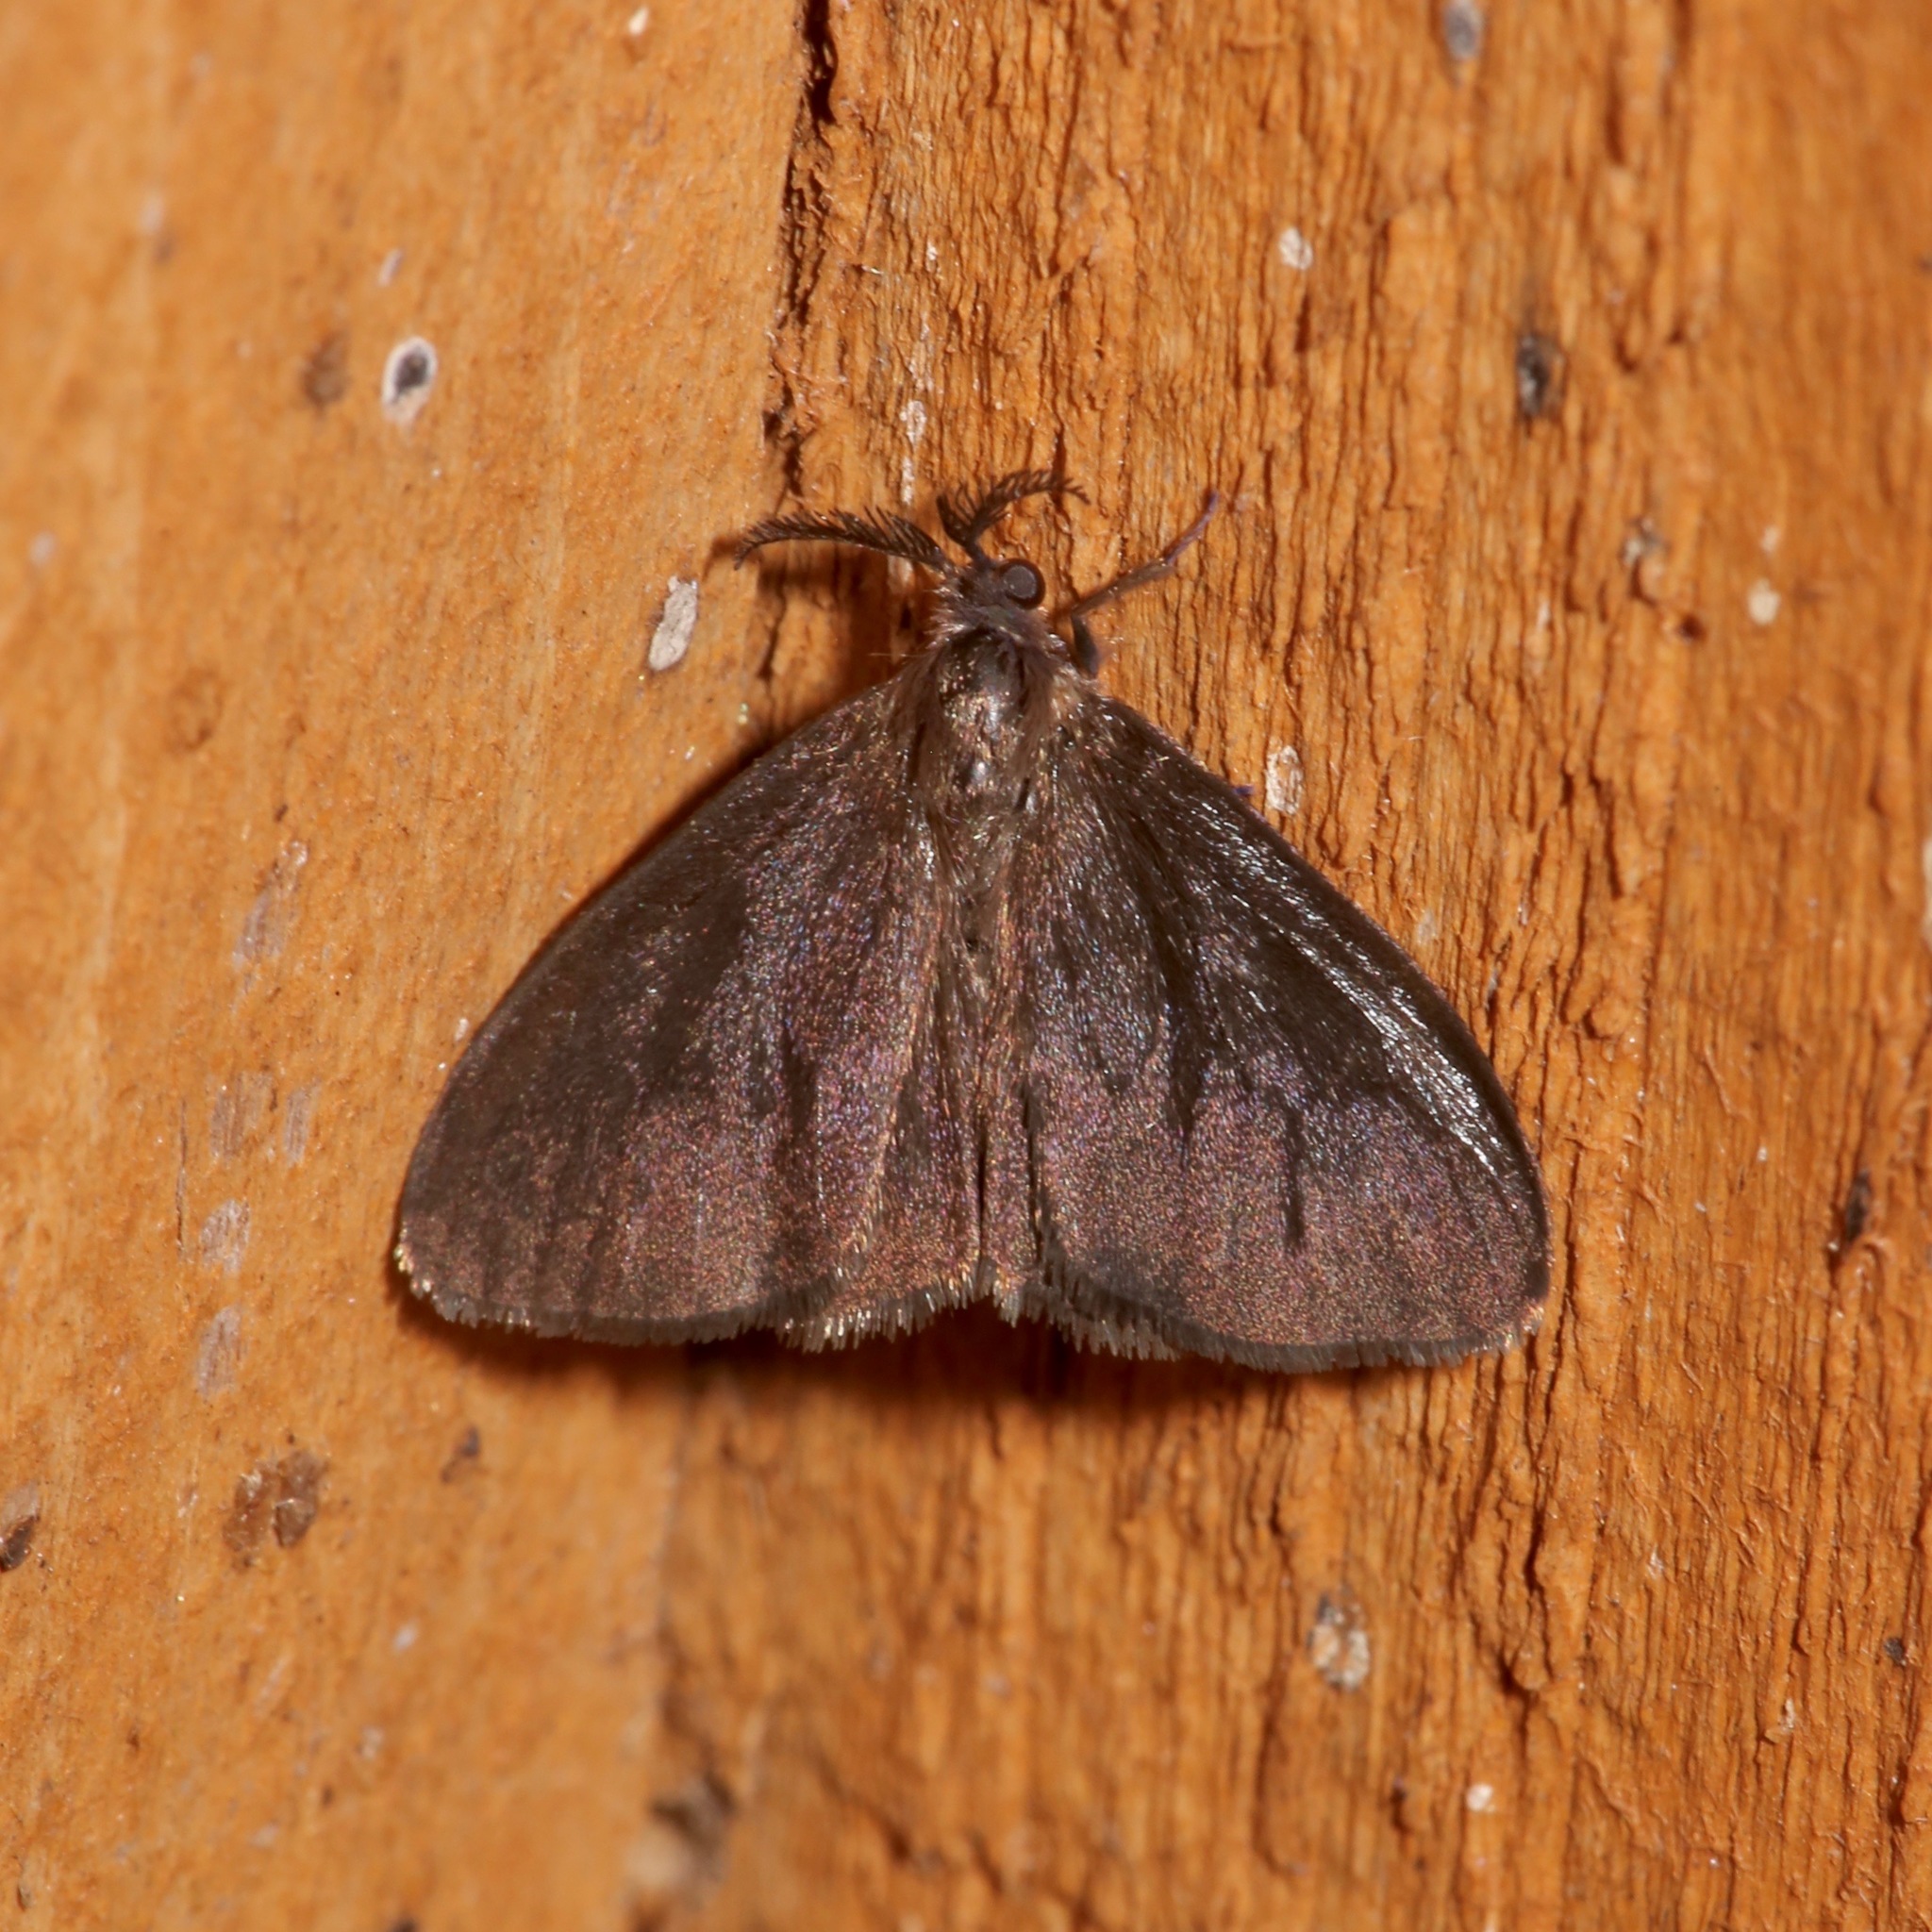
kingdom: Animalia
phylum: Arthropoda
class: Insecta
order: Lepidoptera
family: Psychidae
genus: Cryptothelea
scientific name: Cryptothelea gloverii
